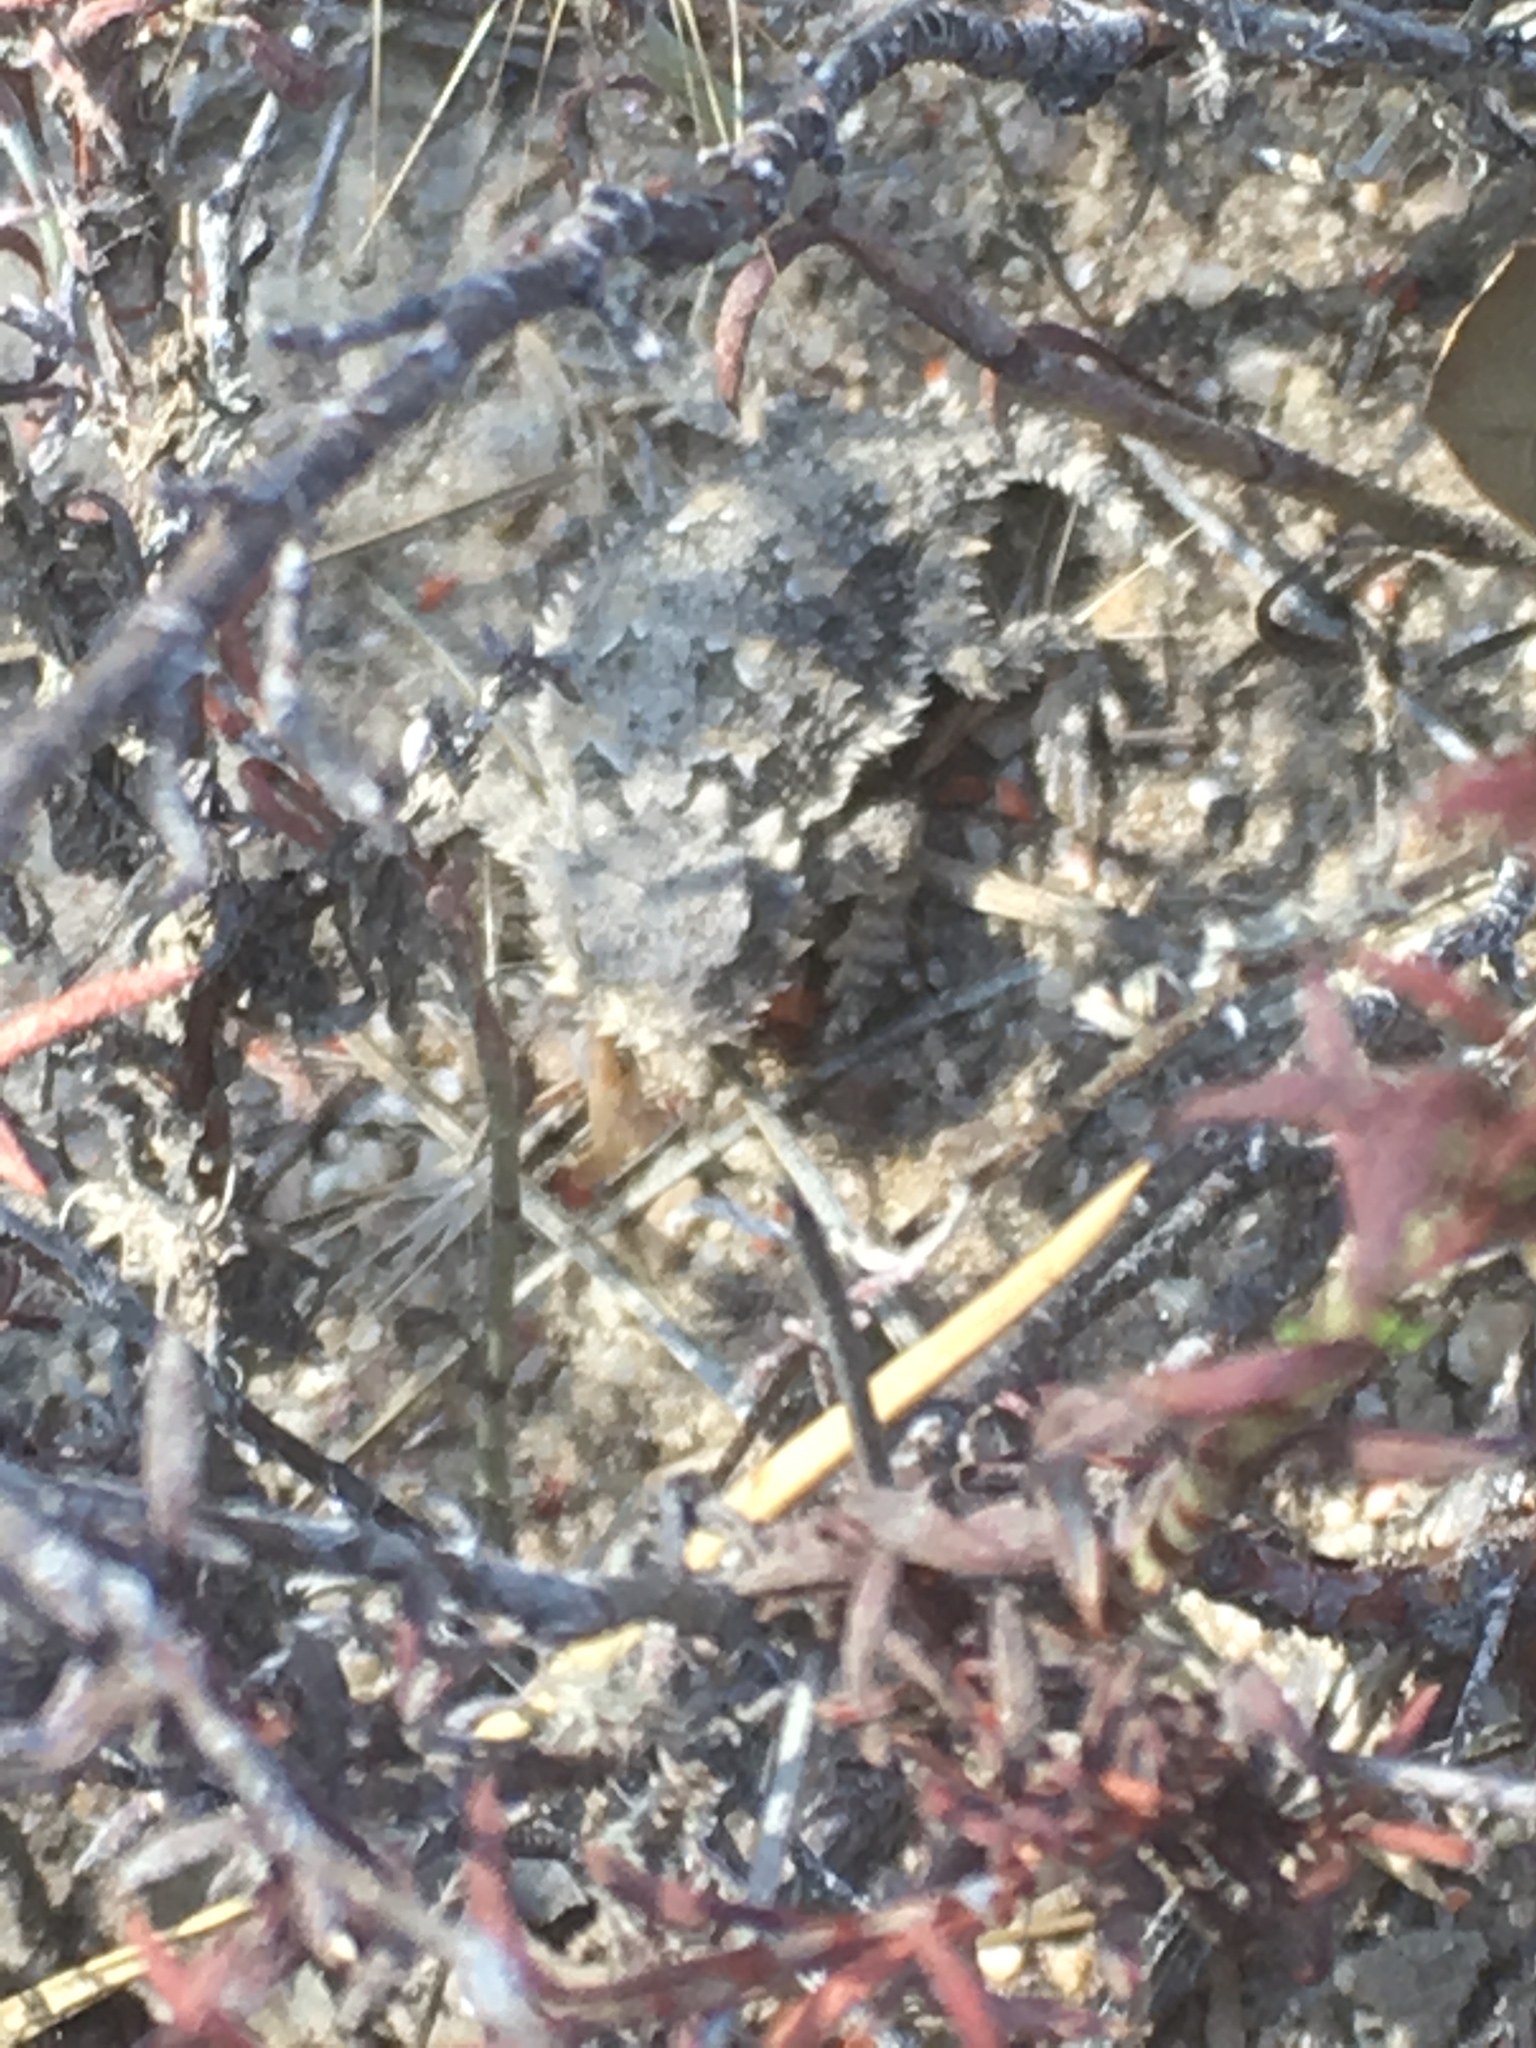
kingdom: Animalia
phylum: Chordata
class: Squamata
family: Phrynosomatidae
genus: Phrynosoma
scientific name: Phrynosoma blainvillii
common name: San diego horned lizard
